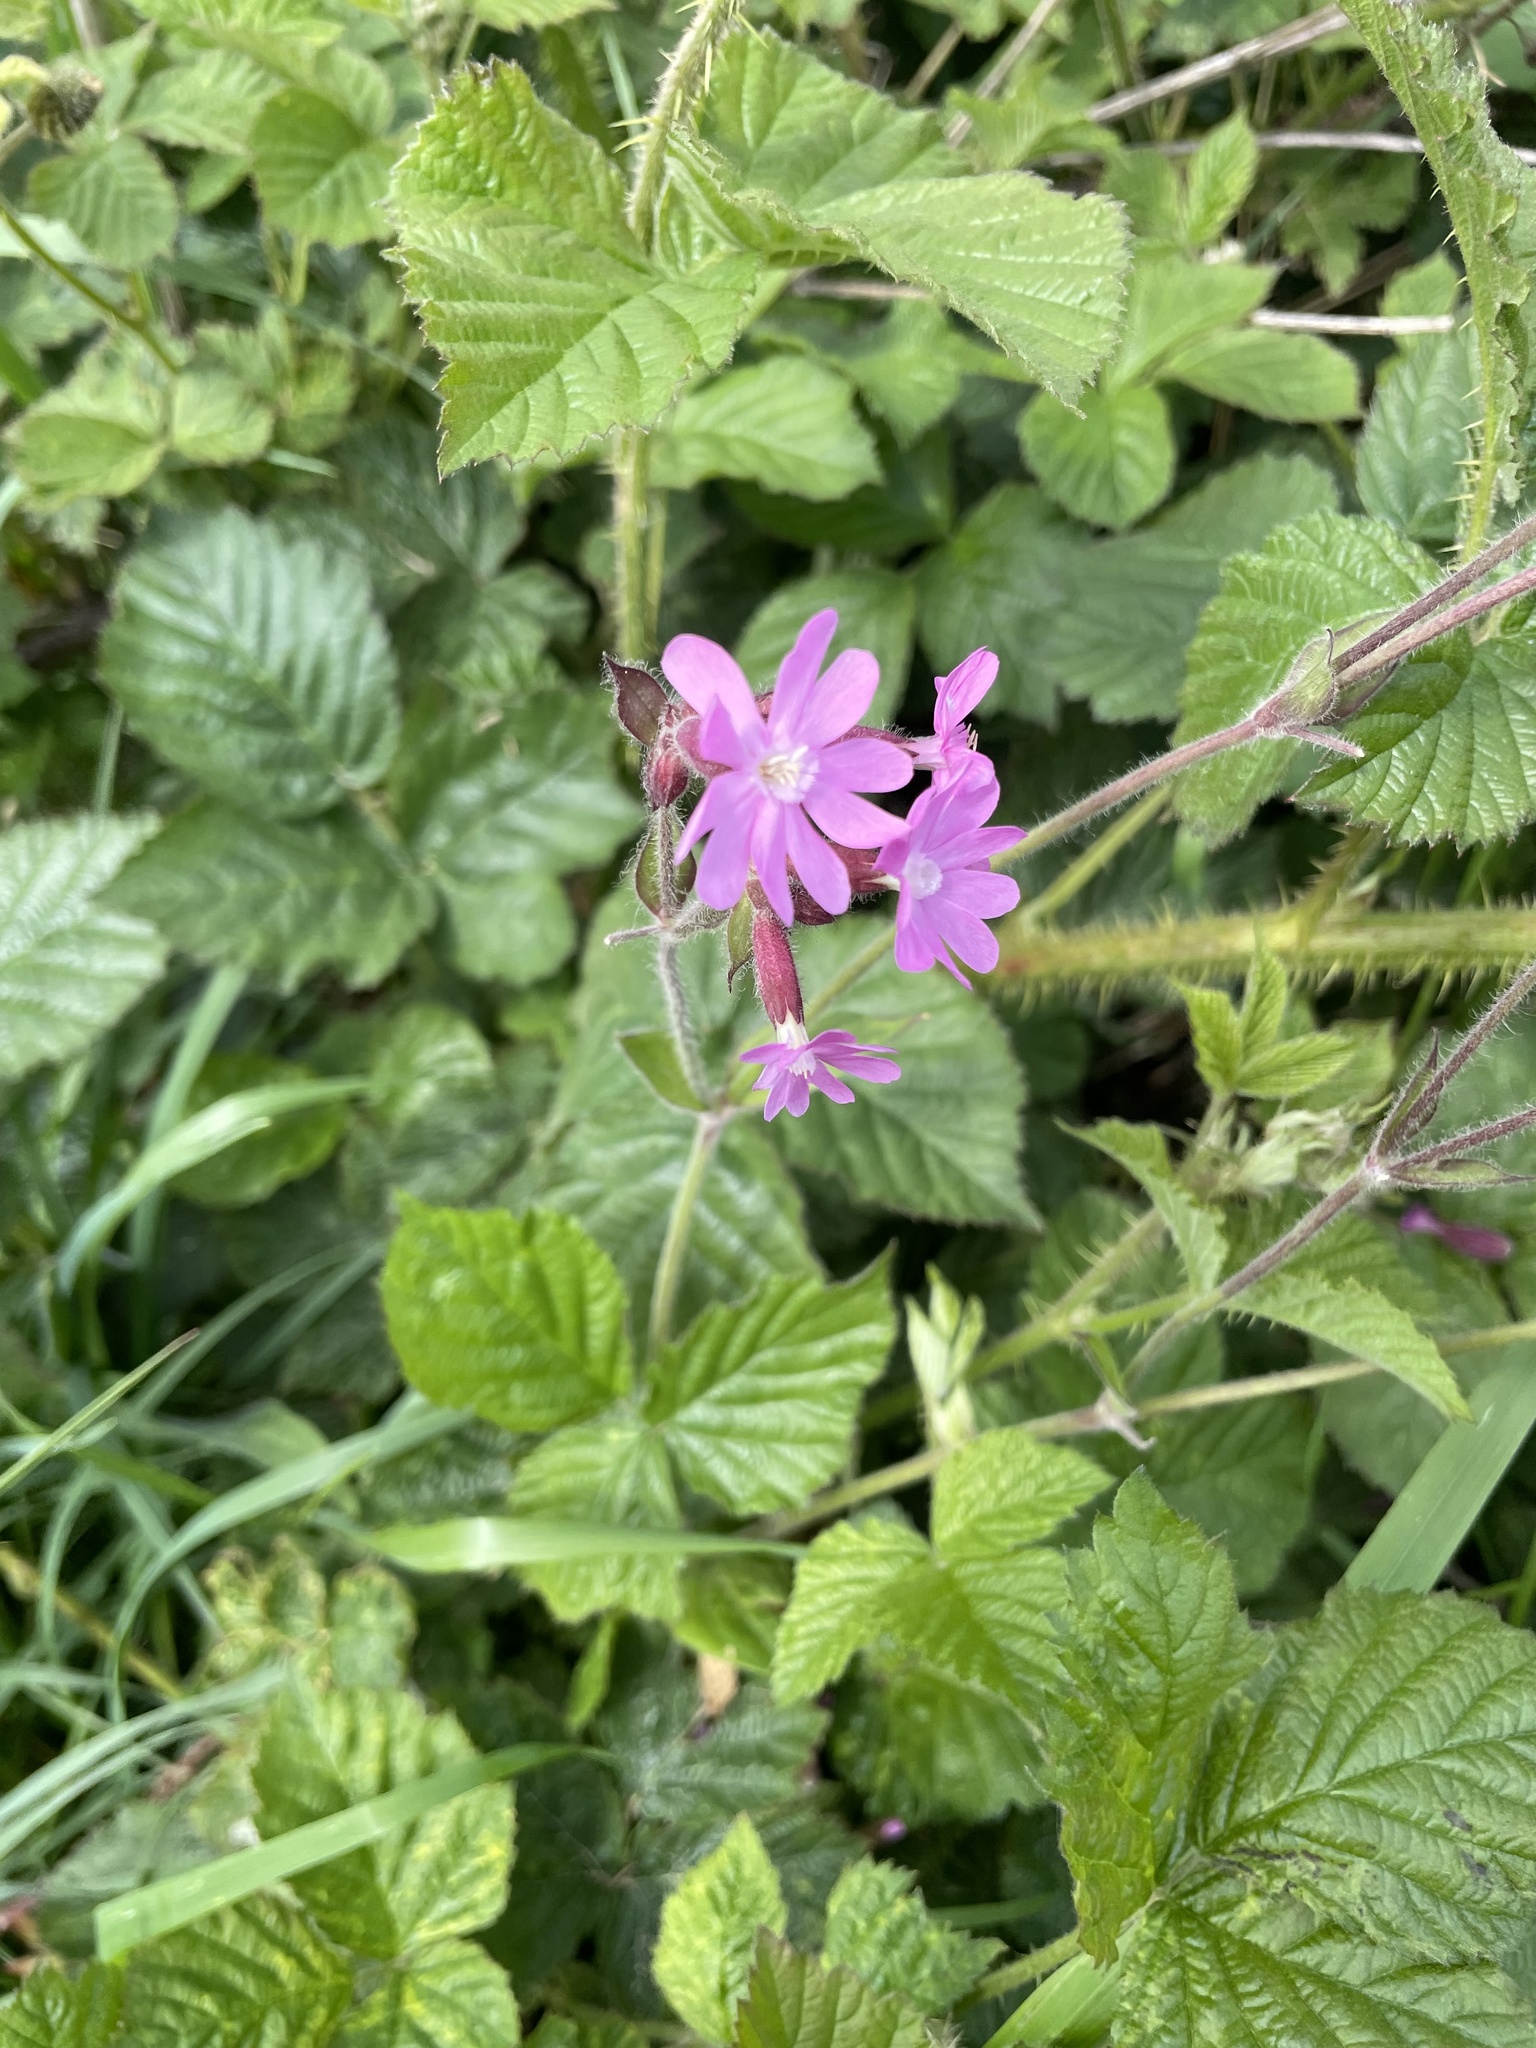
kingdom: Plantae
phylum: Tracheophyta
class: Magnoliopsida
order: Caryophyllales
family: Caryophyllaceae
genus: Silene
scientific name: Silene dioica
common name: Red campion
